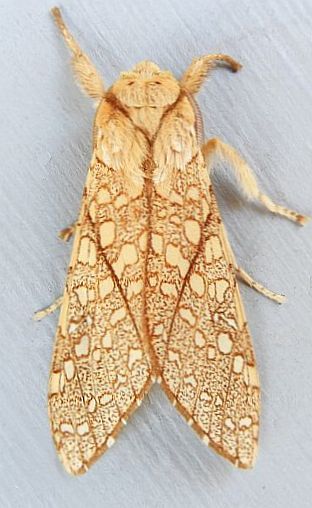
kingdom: Animalia
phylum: Arthropoda
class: Insecta
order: Lepidoptera
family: Erebidae
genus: Lophocampa
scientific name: Lophocampa mixta
